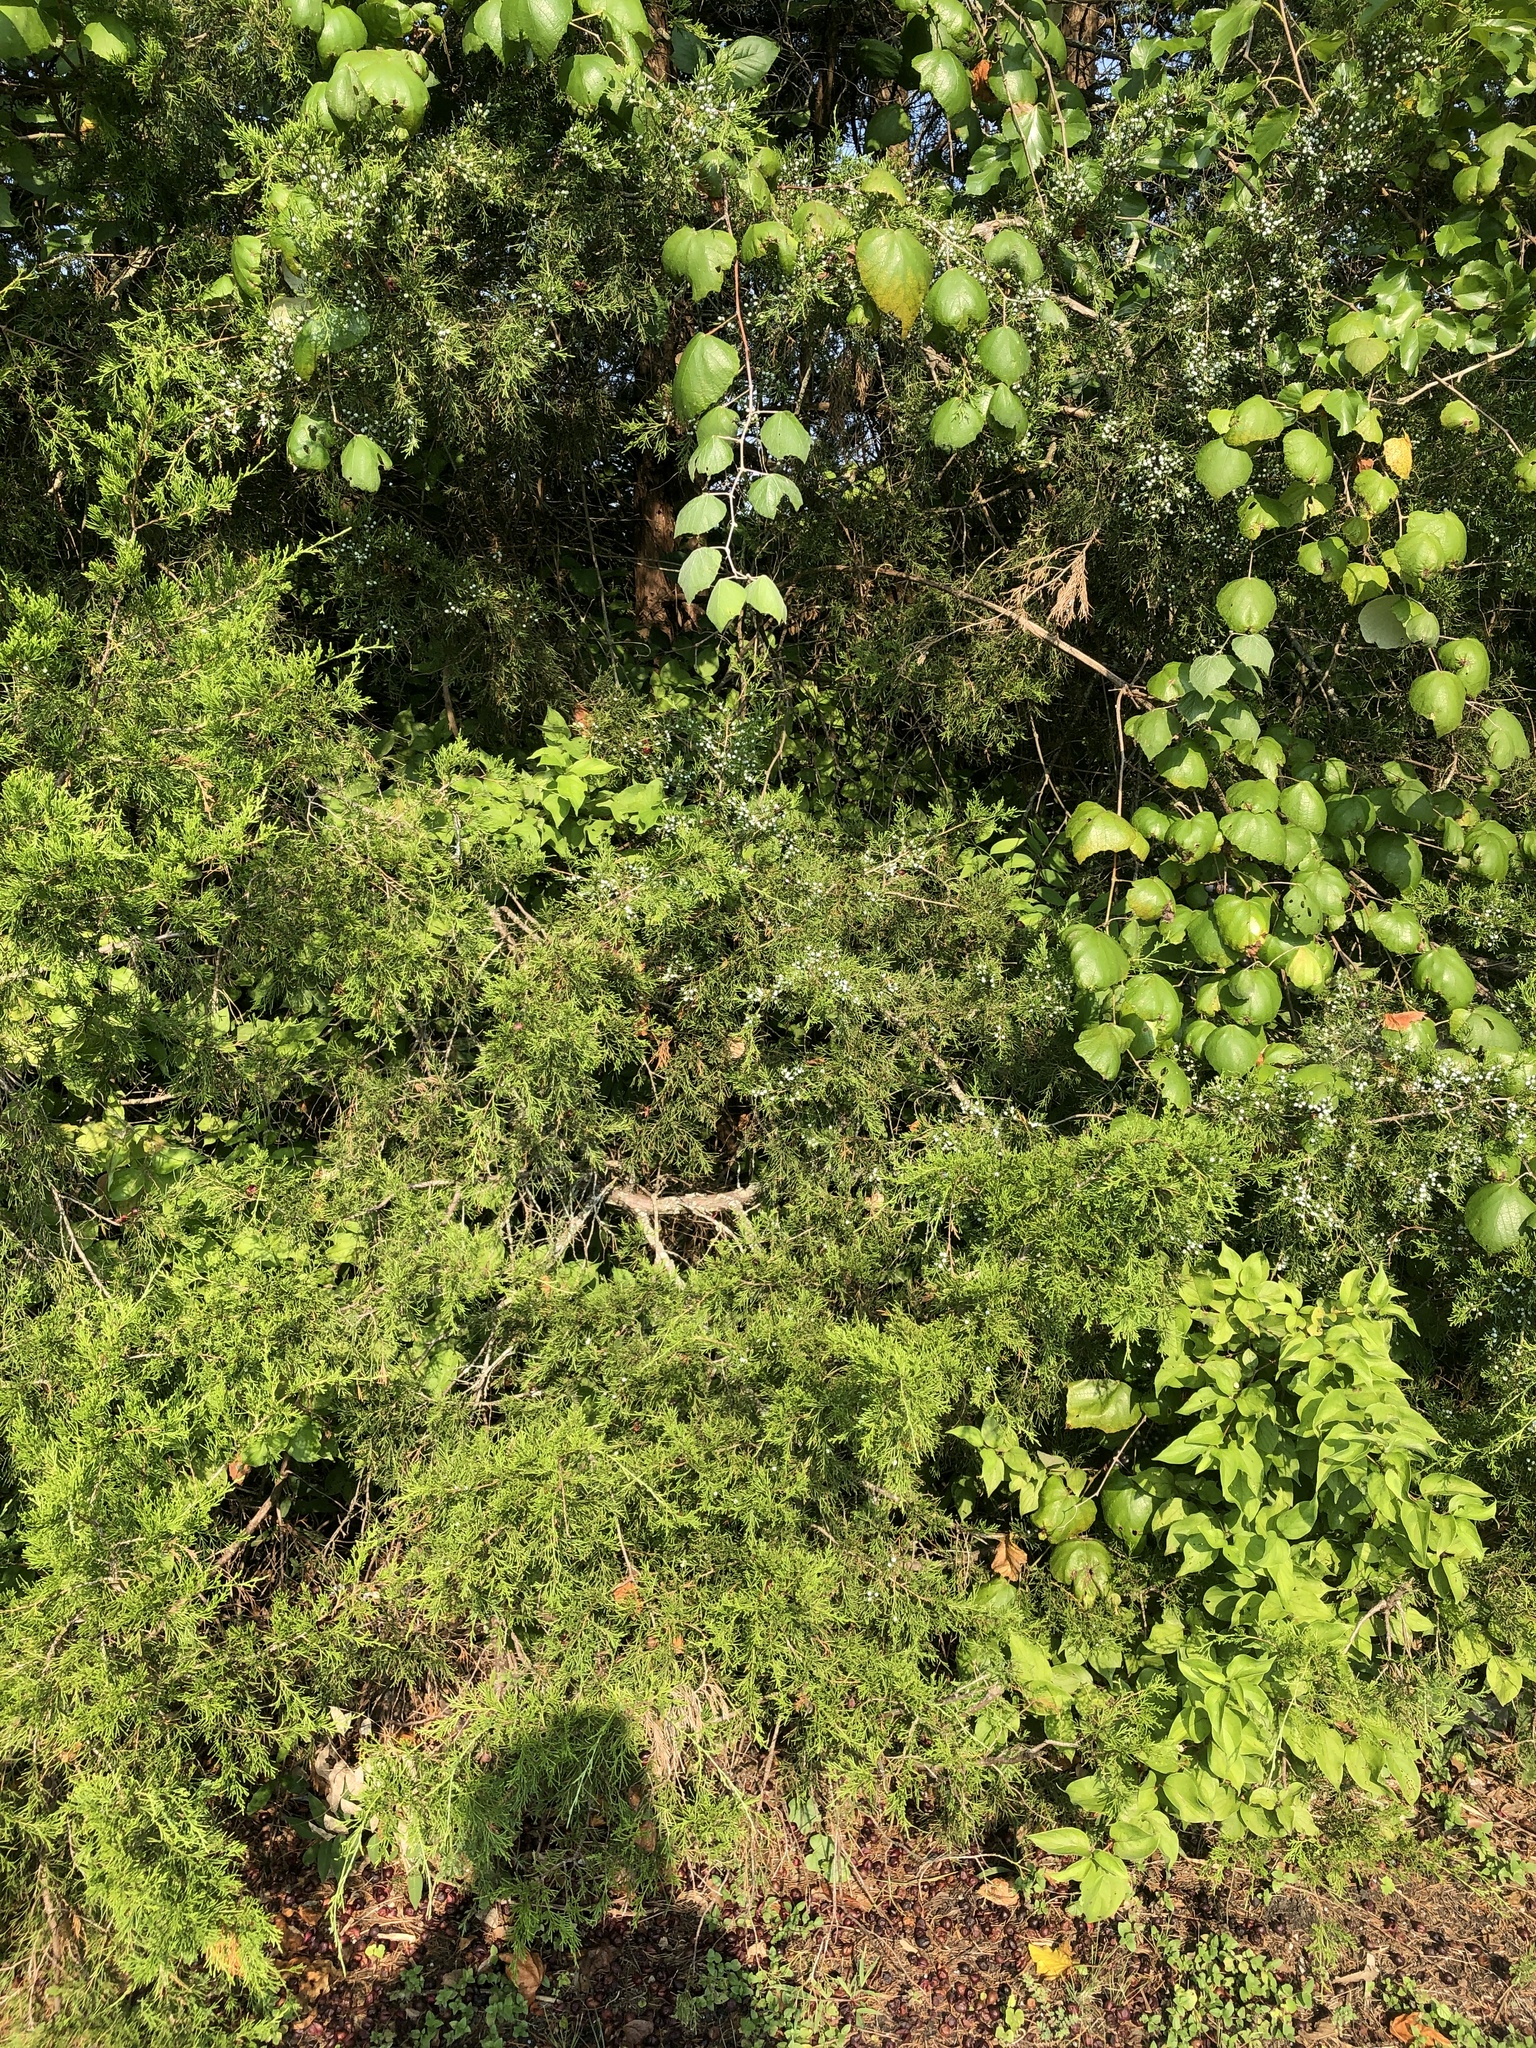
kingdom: Plantae
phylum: Tracheophyta
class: Pinopsida
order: Pinales
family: Cupressaceae
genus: Juniperus
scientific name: Juniperus virginiana
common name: Red juniper
